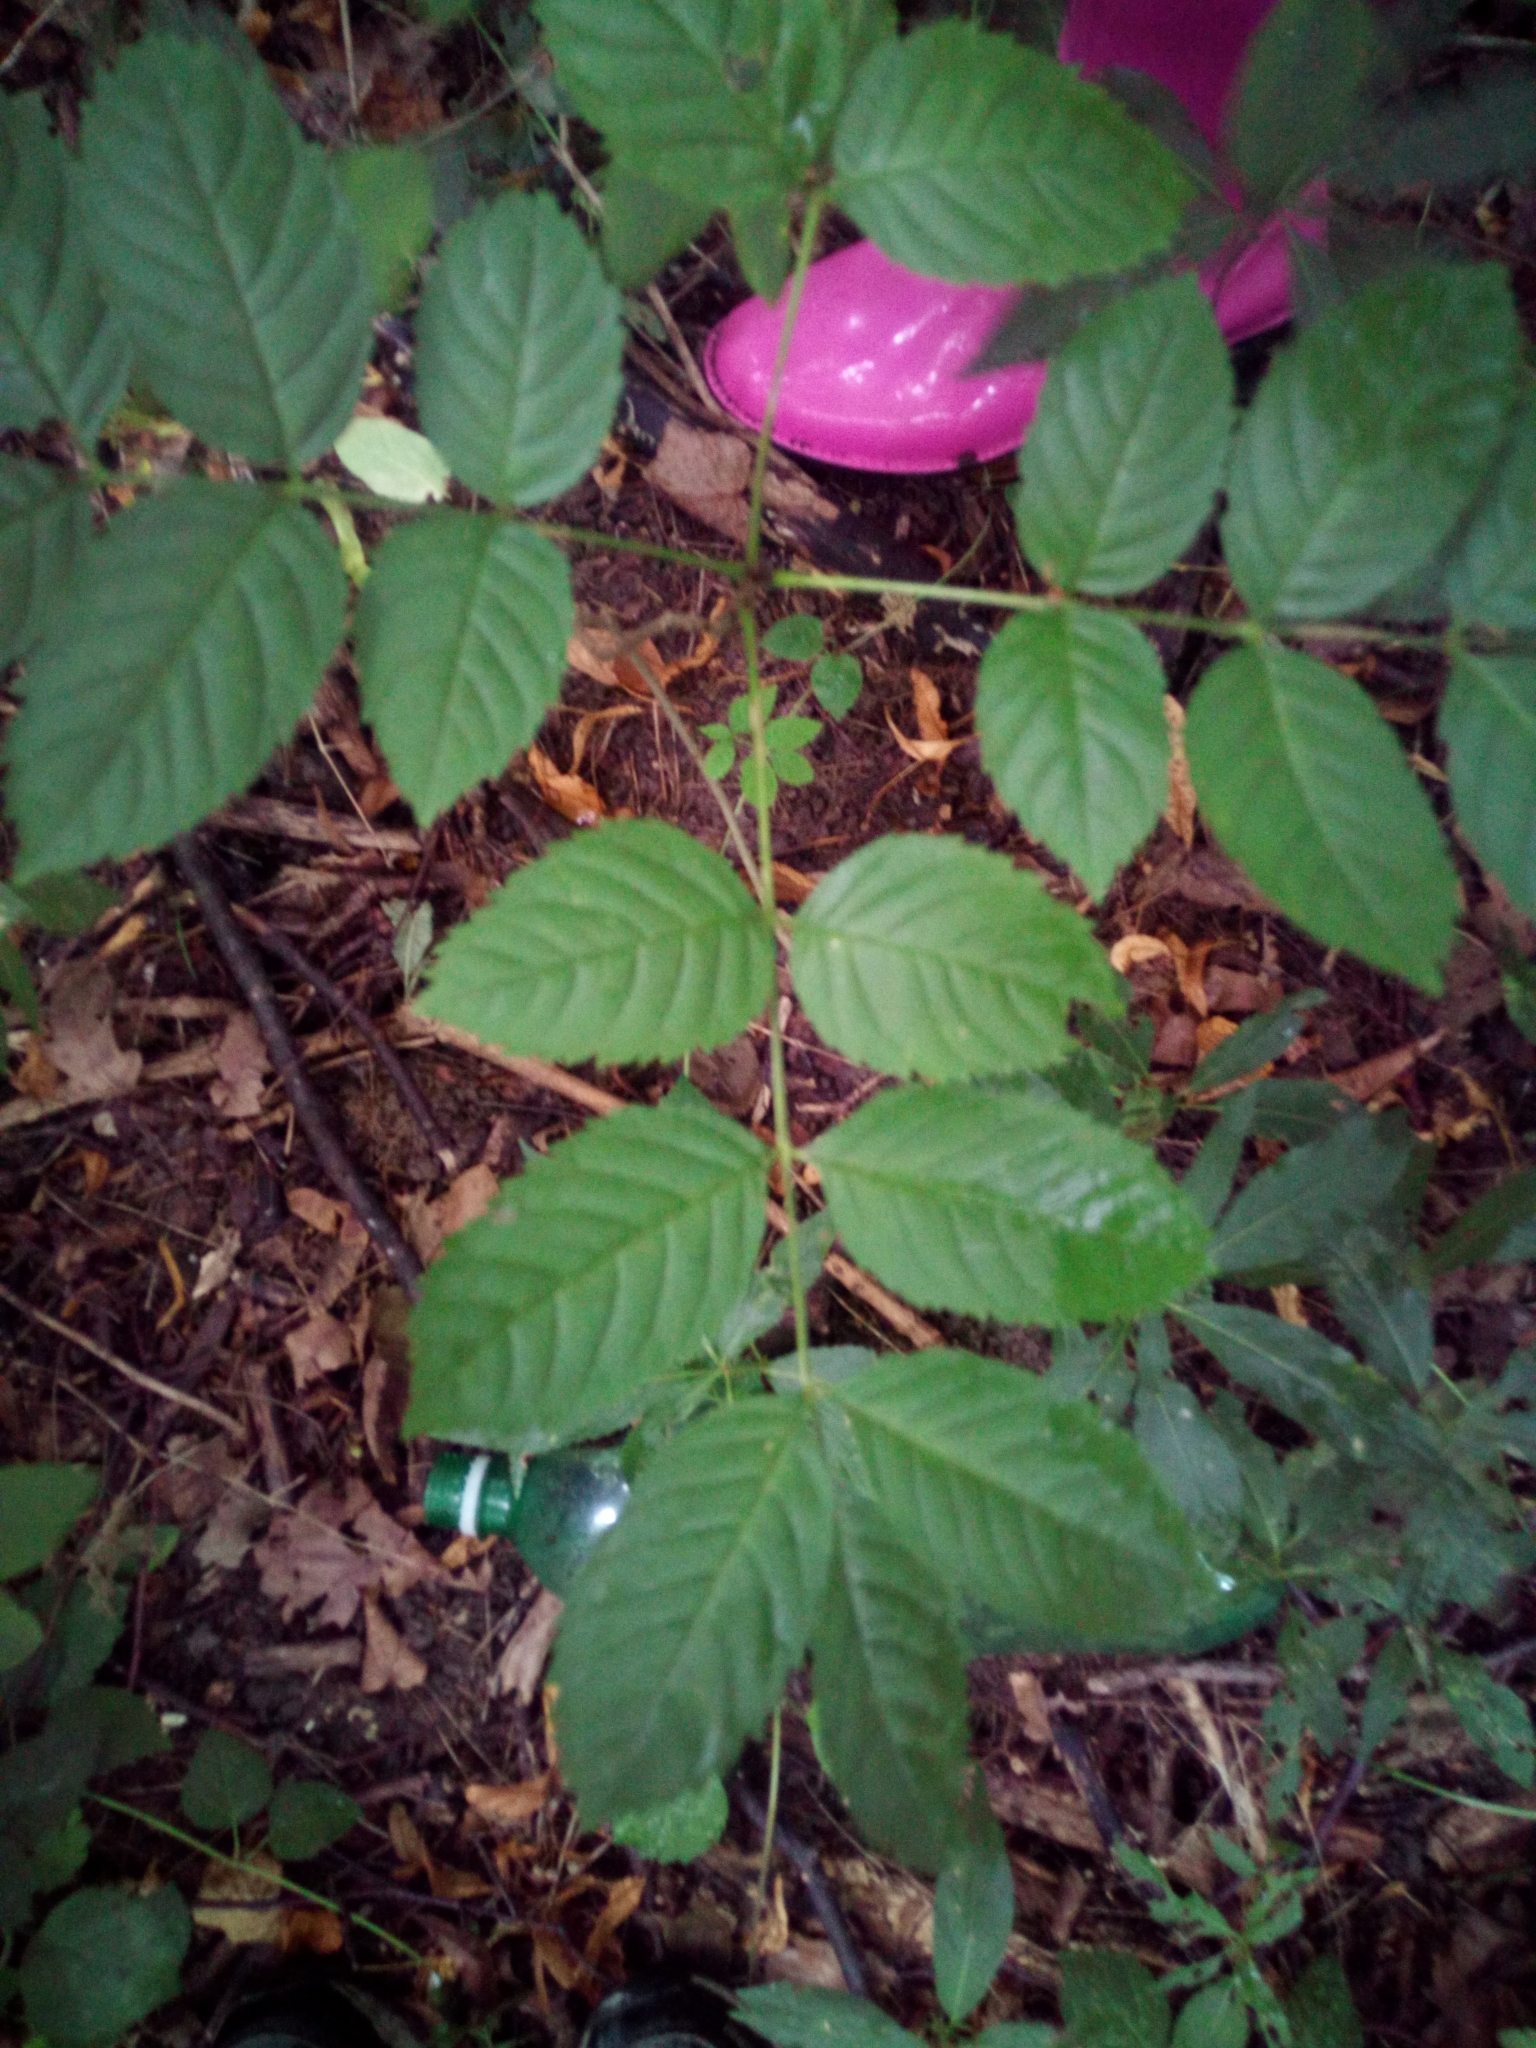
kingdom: Plantae
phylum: Tracheophyta
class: Magnoliopsida
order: Lamiales
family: Oleaceae
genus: Fraxinus
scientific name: Fraxinus excelsior
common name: European ash
